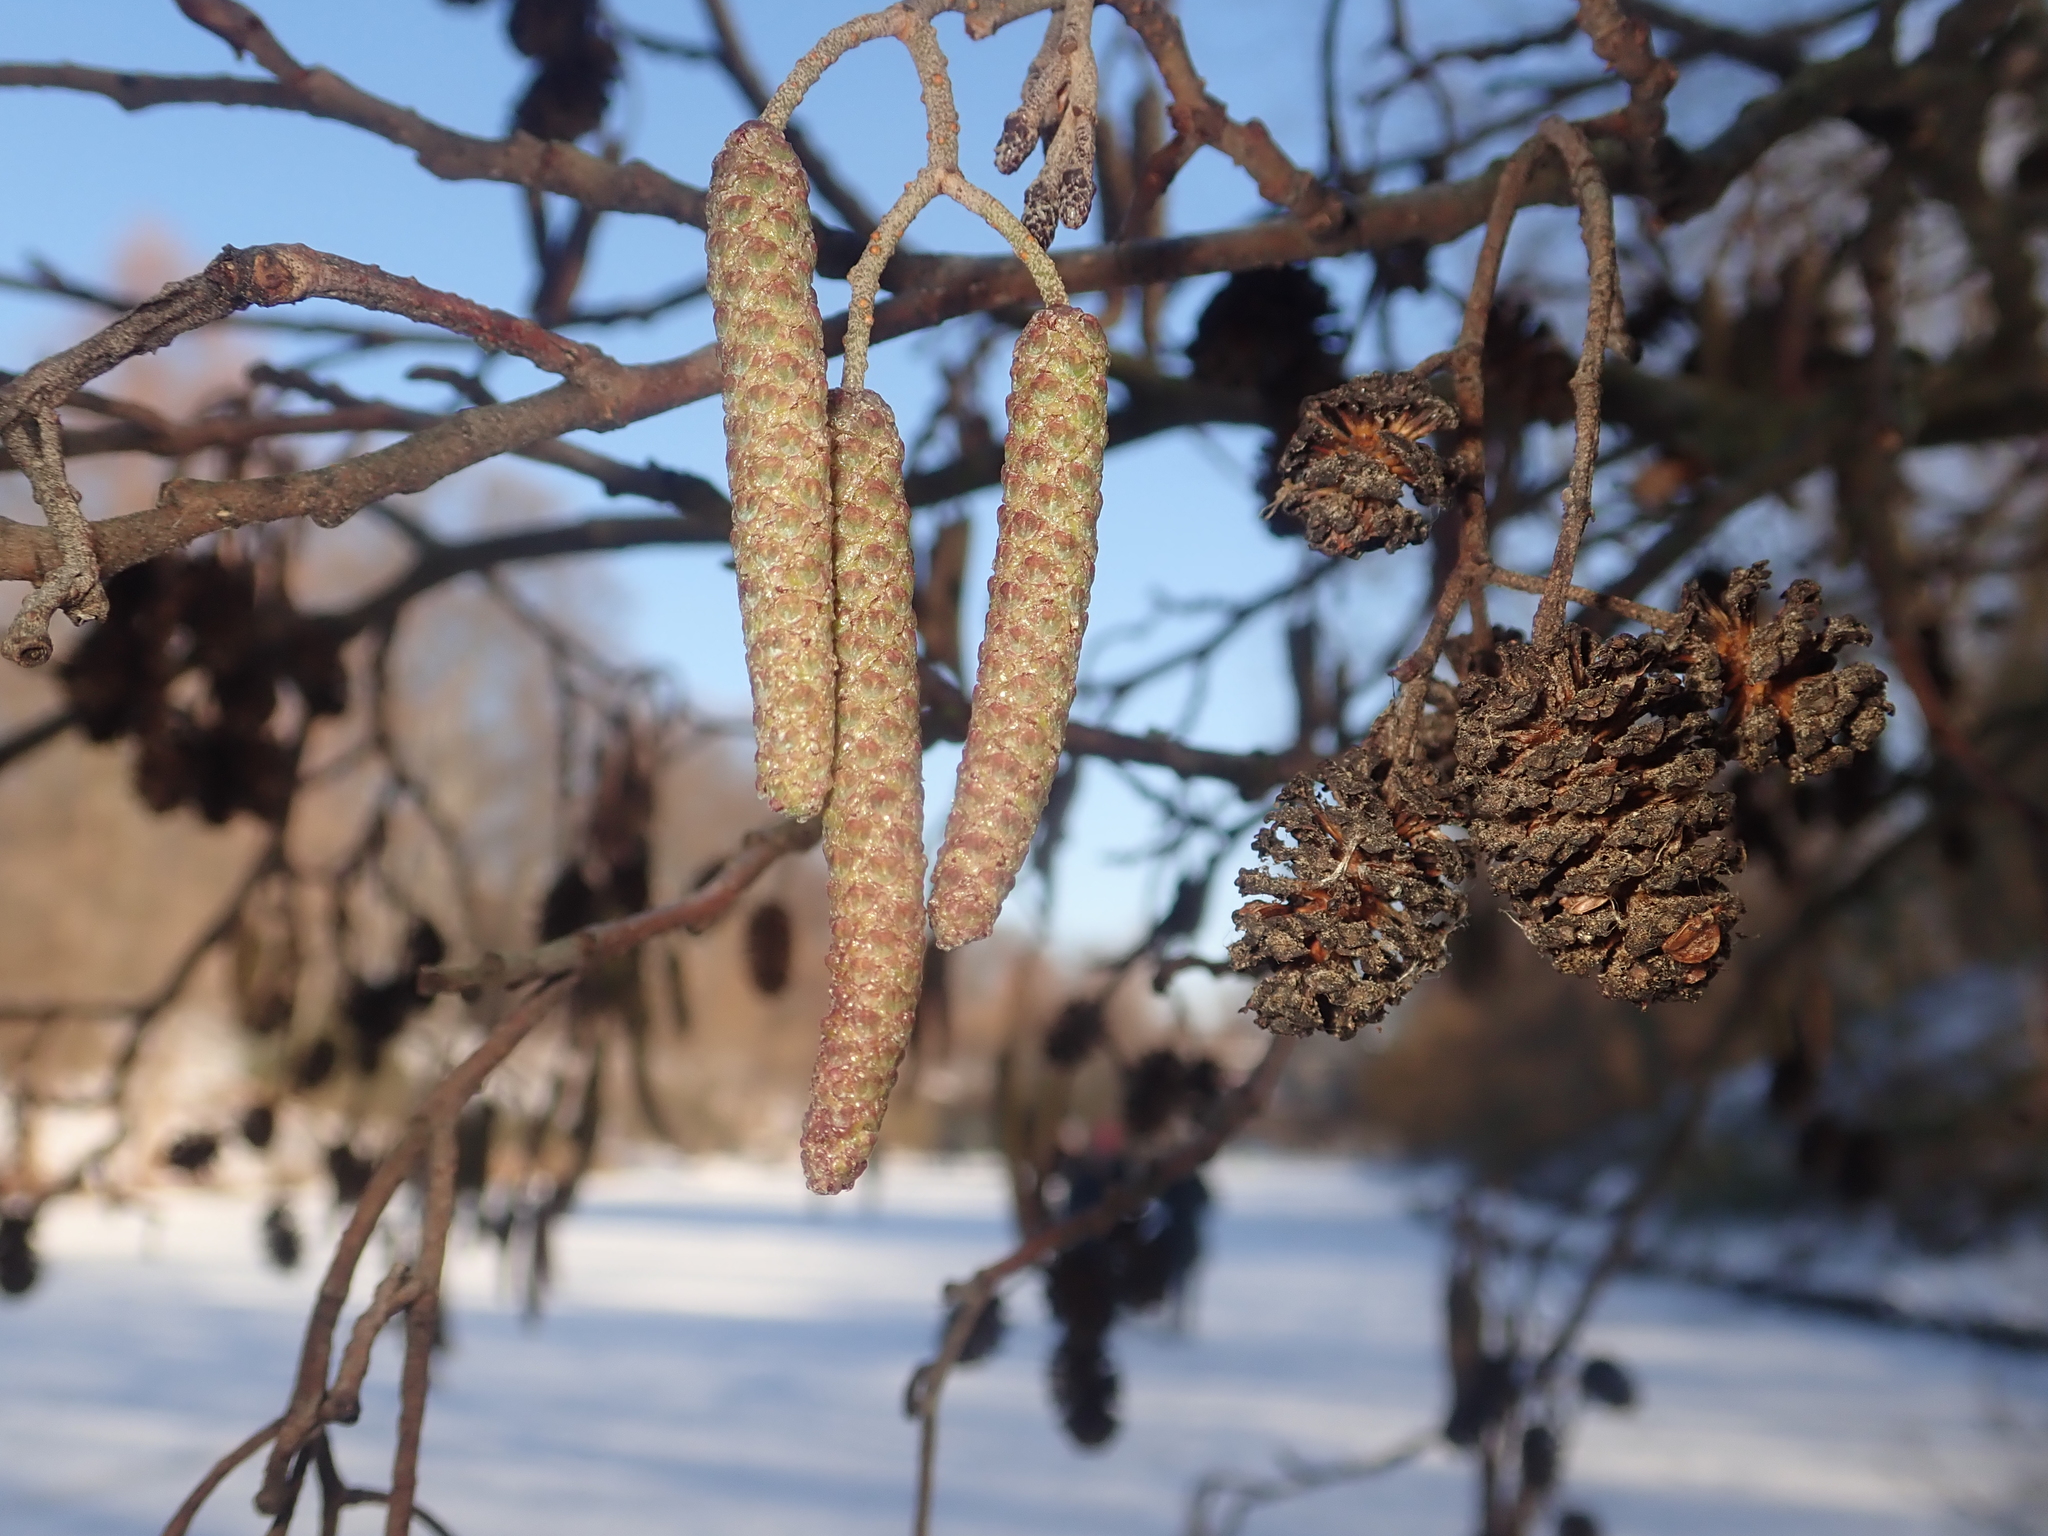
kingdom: Plantae
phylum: Tracheophyta
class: Magnoliopsida
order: Fagales
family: Betulaceae
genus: Alnus
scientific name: Alnus glutinosa
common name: Black alder
